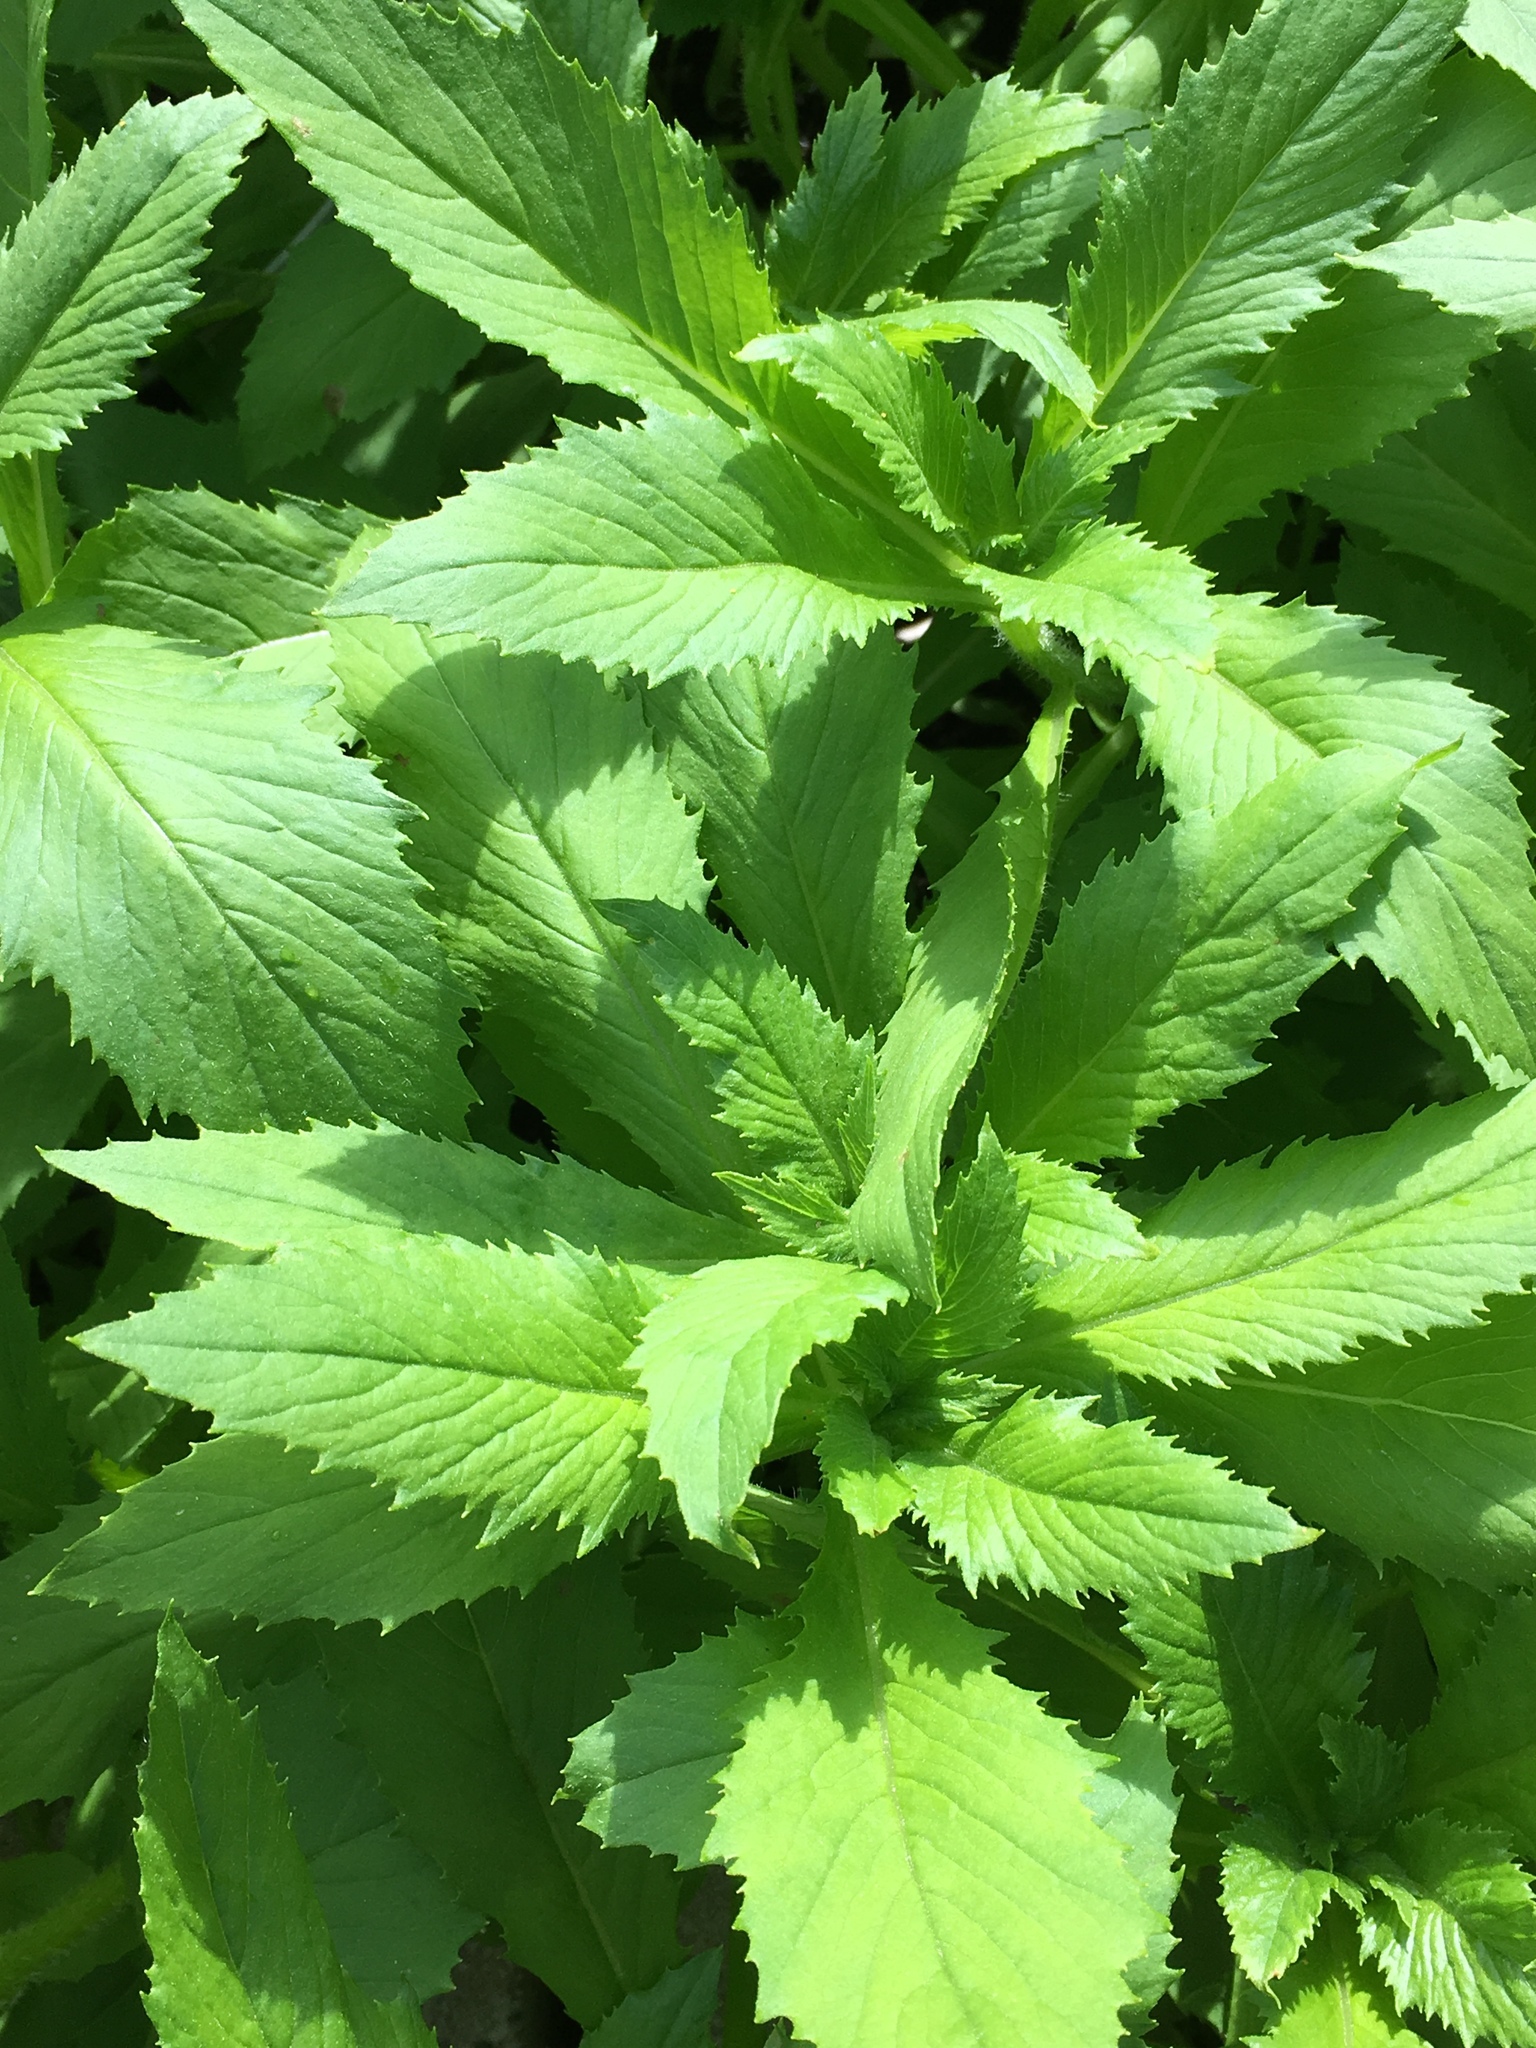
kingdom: Plantae
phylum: Tracheophyta
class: Magnoliopsida
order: Asterales
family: Asteraceae
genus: Erechtites
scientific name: Erechtites hieraciifolius
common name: American burnweed
